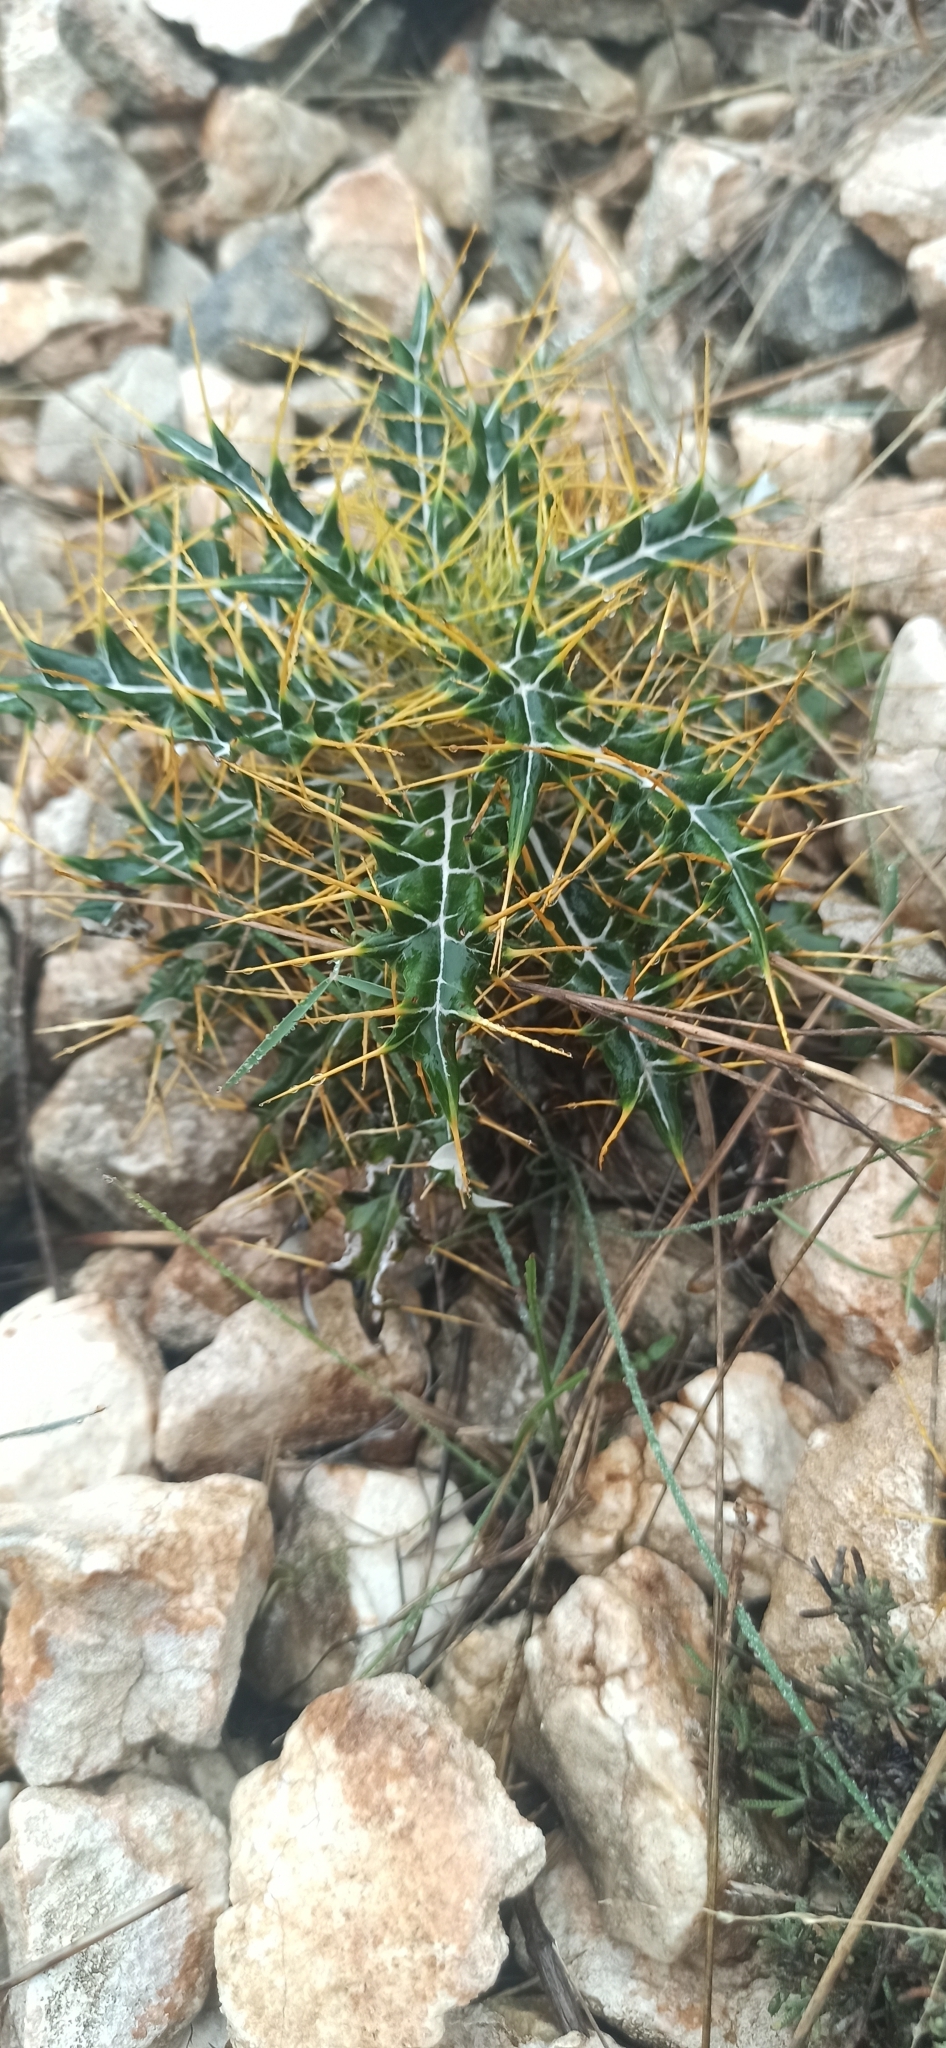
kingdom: Plantae
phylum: Tracheophyta
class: Magnoliopsida
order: Asterales
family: Asteraceae
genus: Ptilostemon
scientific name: Ptilostemon hispanicus
